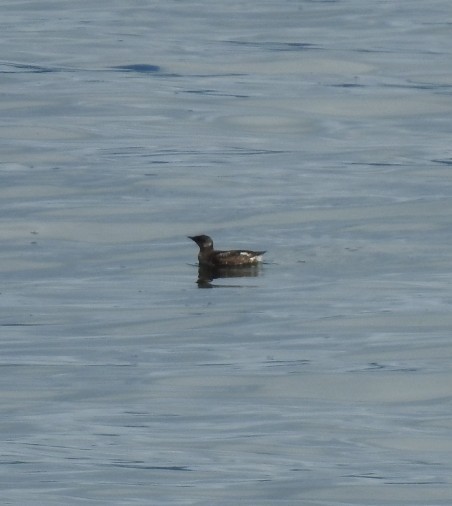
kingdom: Animalia
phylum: Chordata
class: Aves
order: Charadriiformes
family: Alcidae
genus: Brachyramphus
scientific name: Brachyramphus marmoratus
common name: Marbled murrelet
